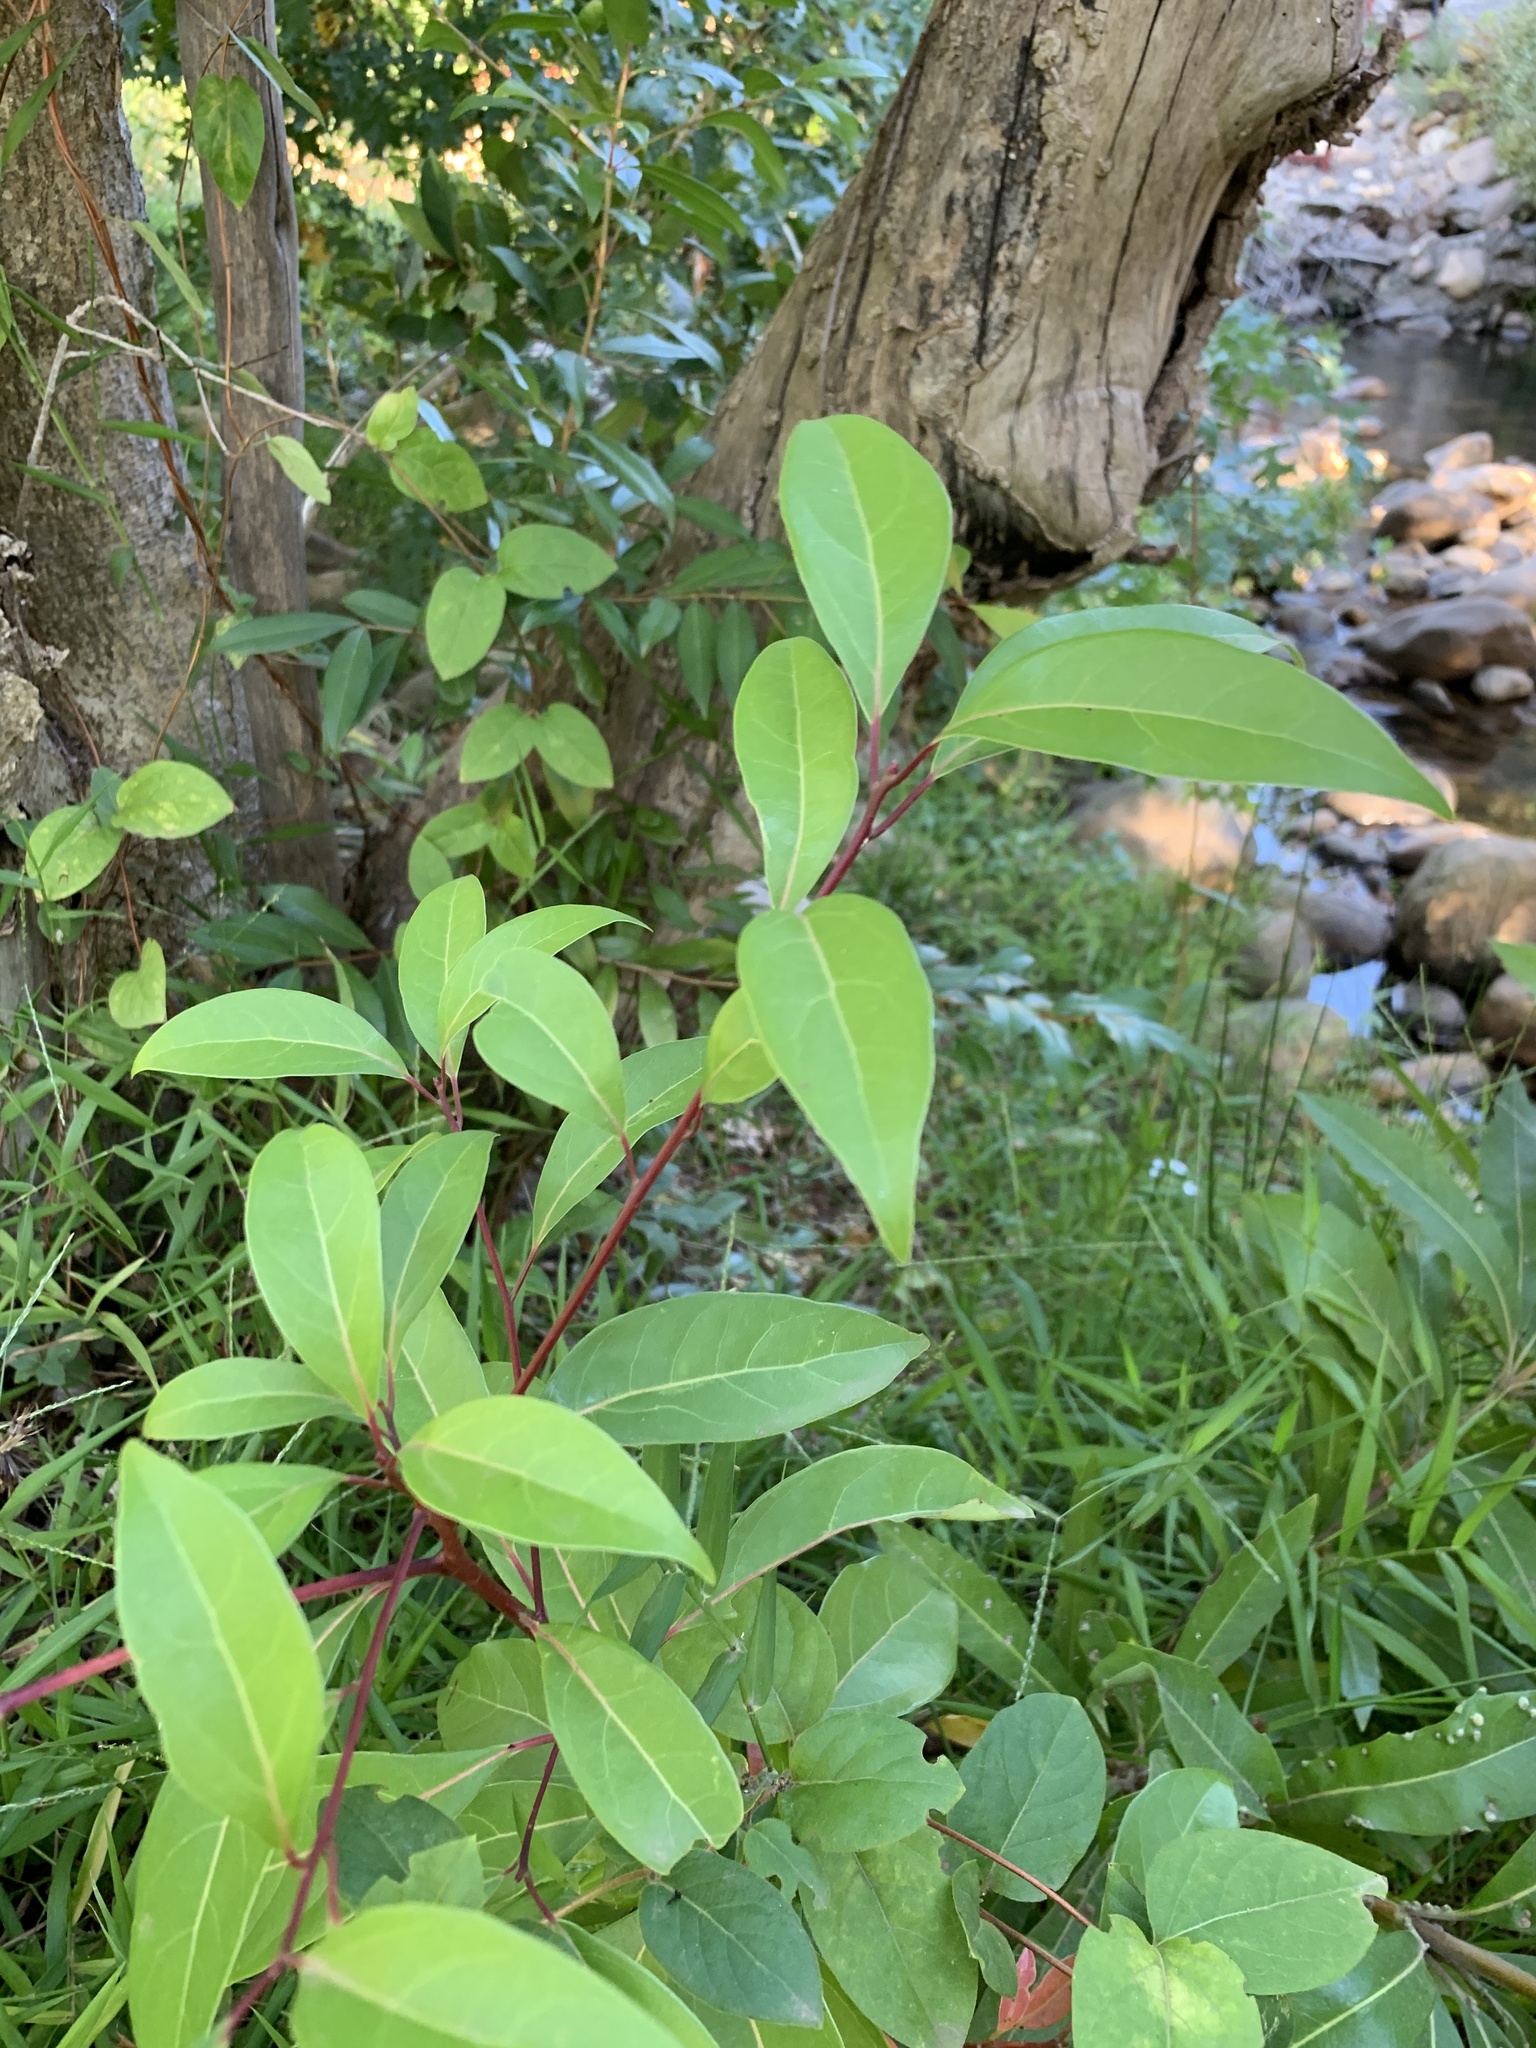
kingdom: Plantae
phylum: Tracheophyta
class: Magnoliopsida
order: Myrtales
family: Myrtaceae
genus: Syzygium
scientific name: Syzygium australe
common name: Australian brush-cherry
